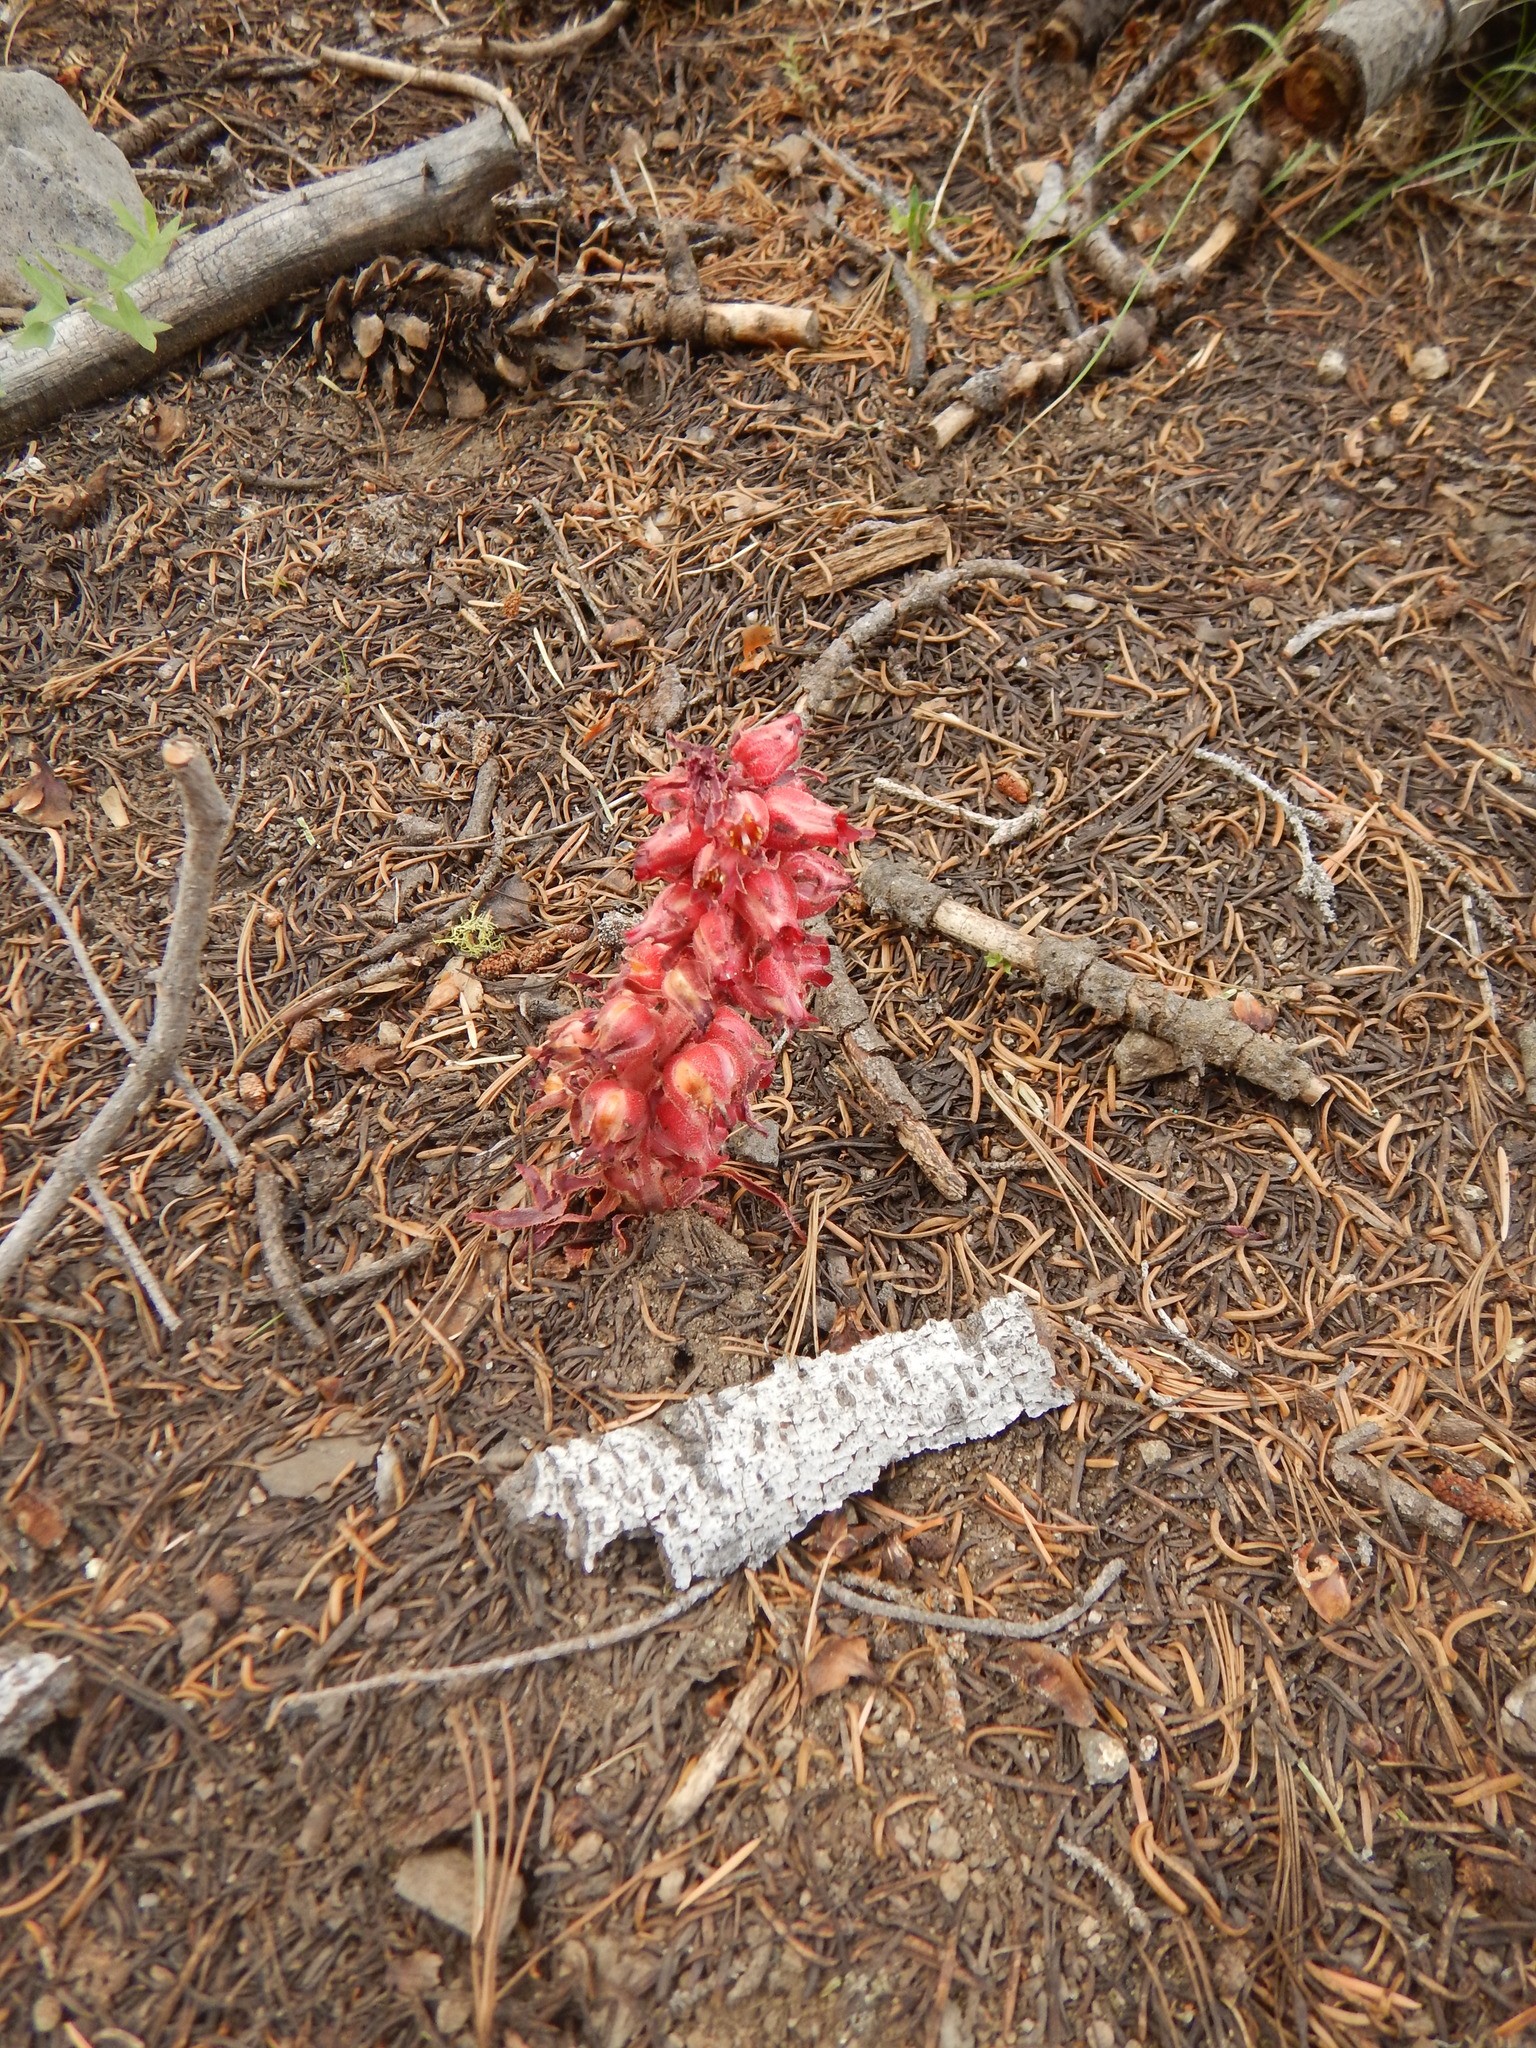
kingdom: Plantae
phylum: Tracheophyta
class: Magnoliopsida
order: Ericales
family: Ericaceae
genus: Sarcodes
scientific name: Sarcodes sanguinea
